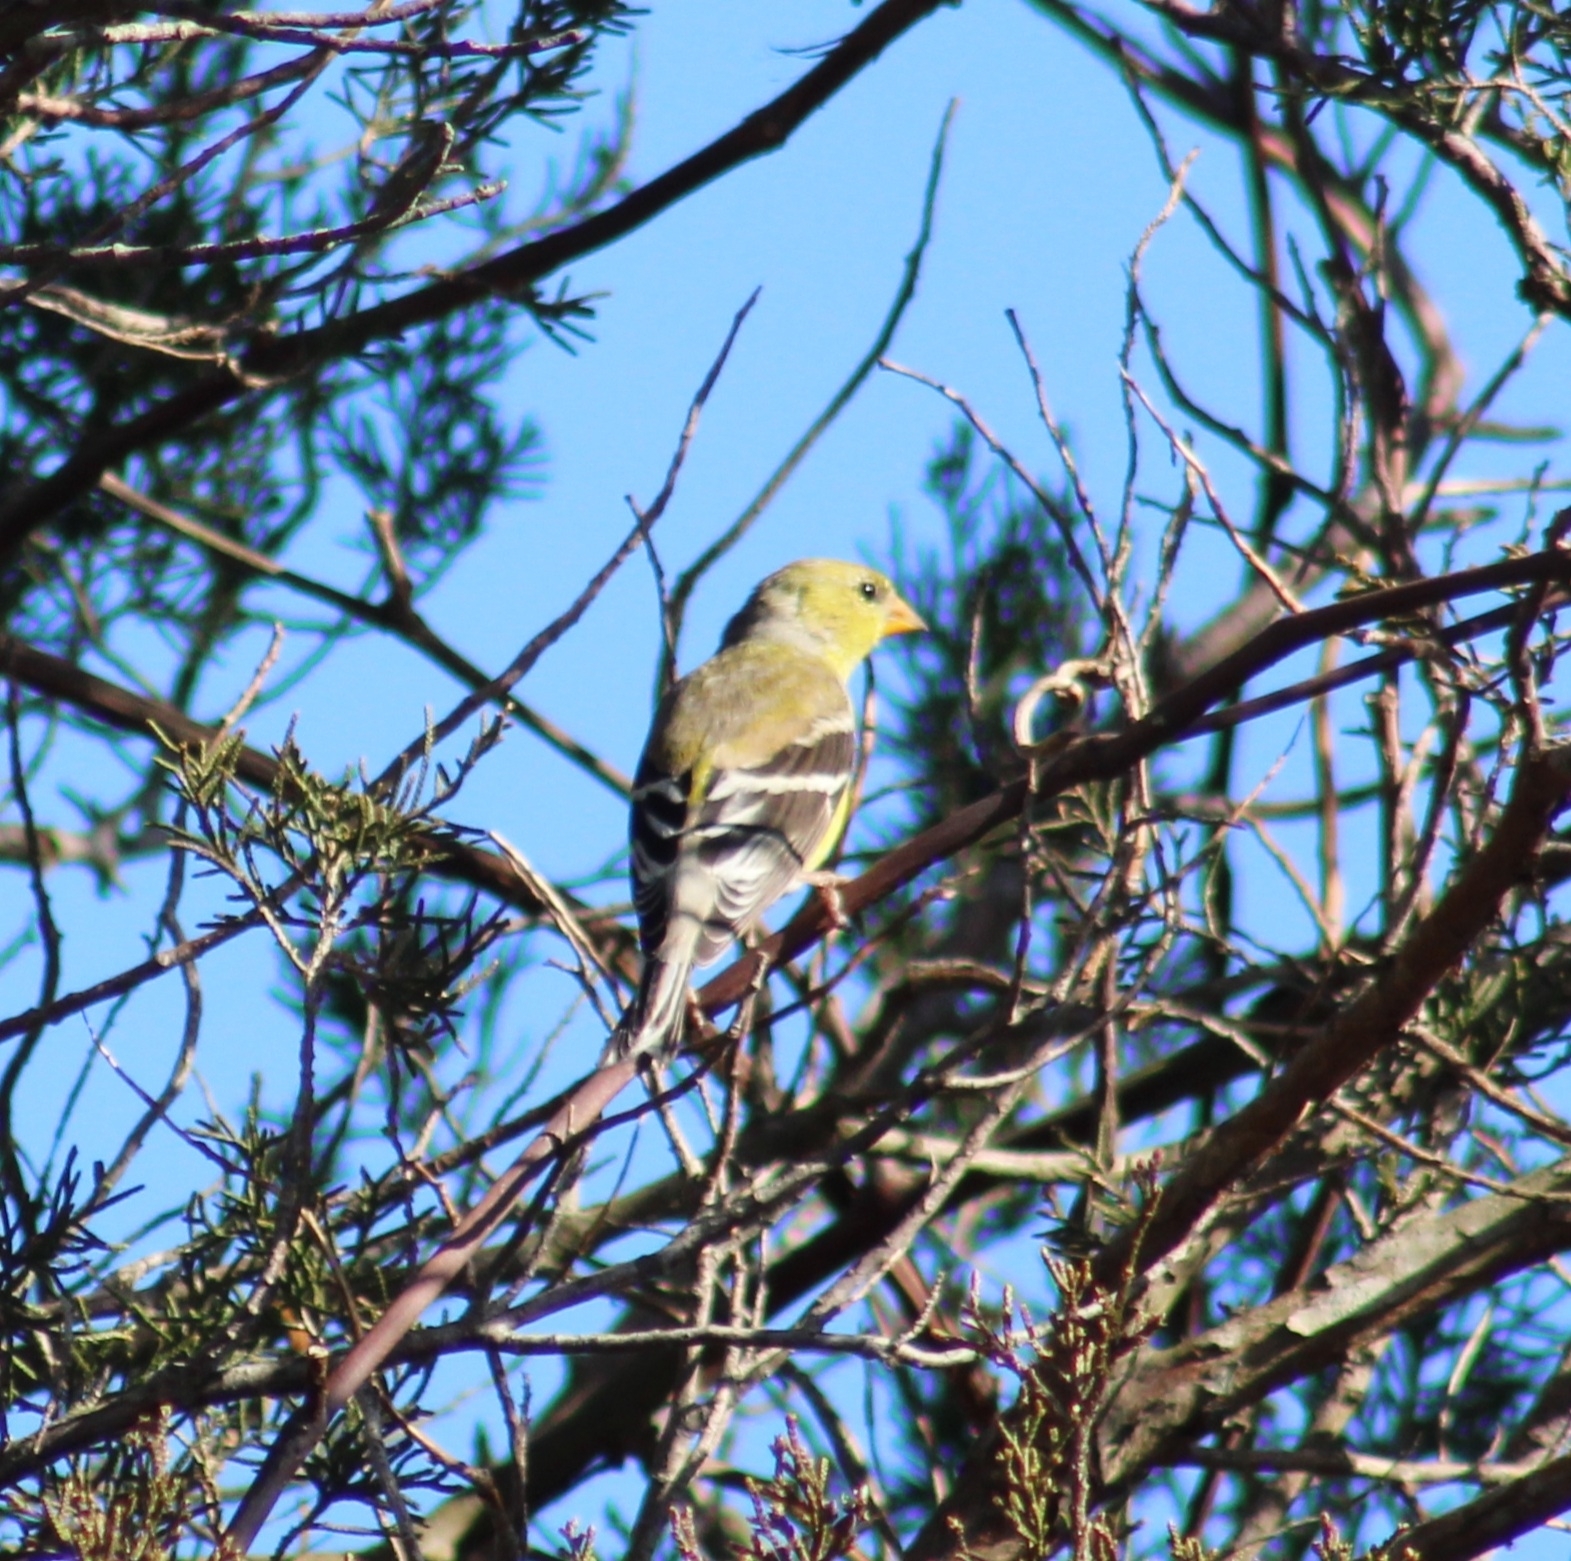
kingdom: Animalia
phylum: Chordata
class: Aves
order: Passeriformes
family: Fringillidae
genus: Spinus
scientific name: Spinus tristis
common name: American goldfinch
